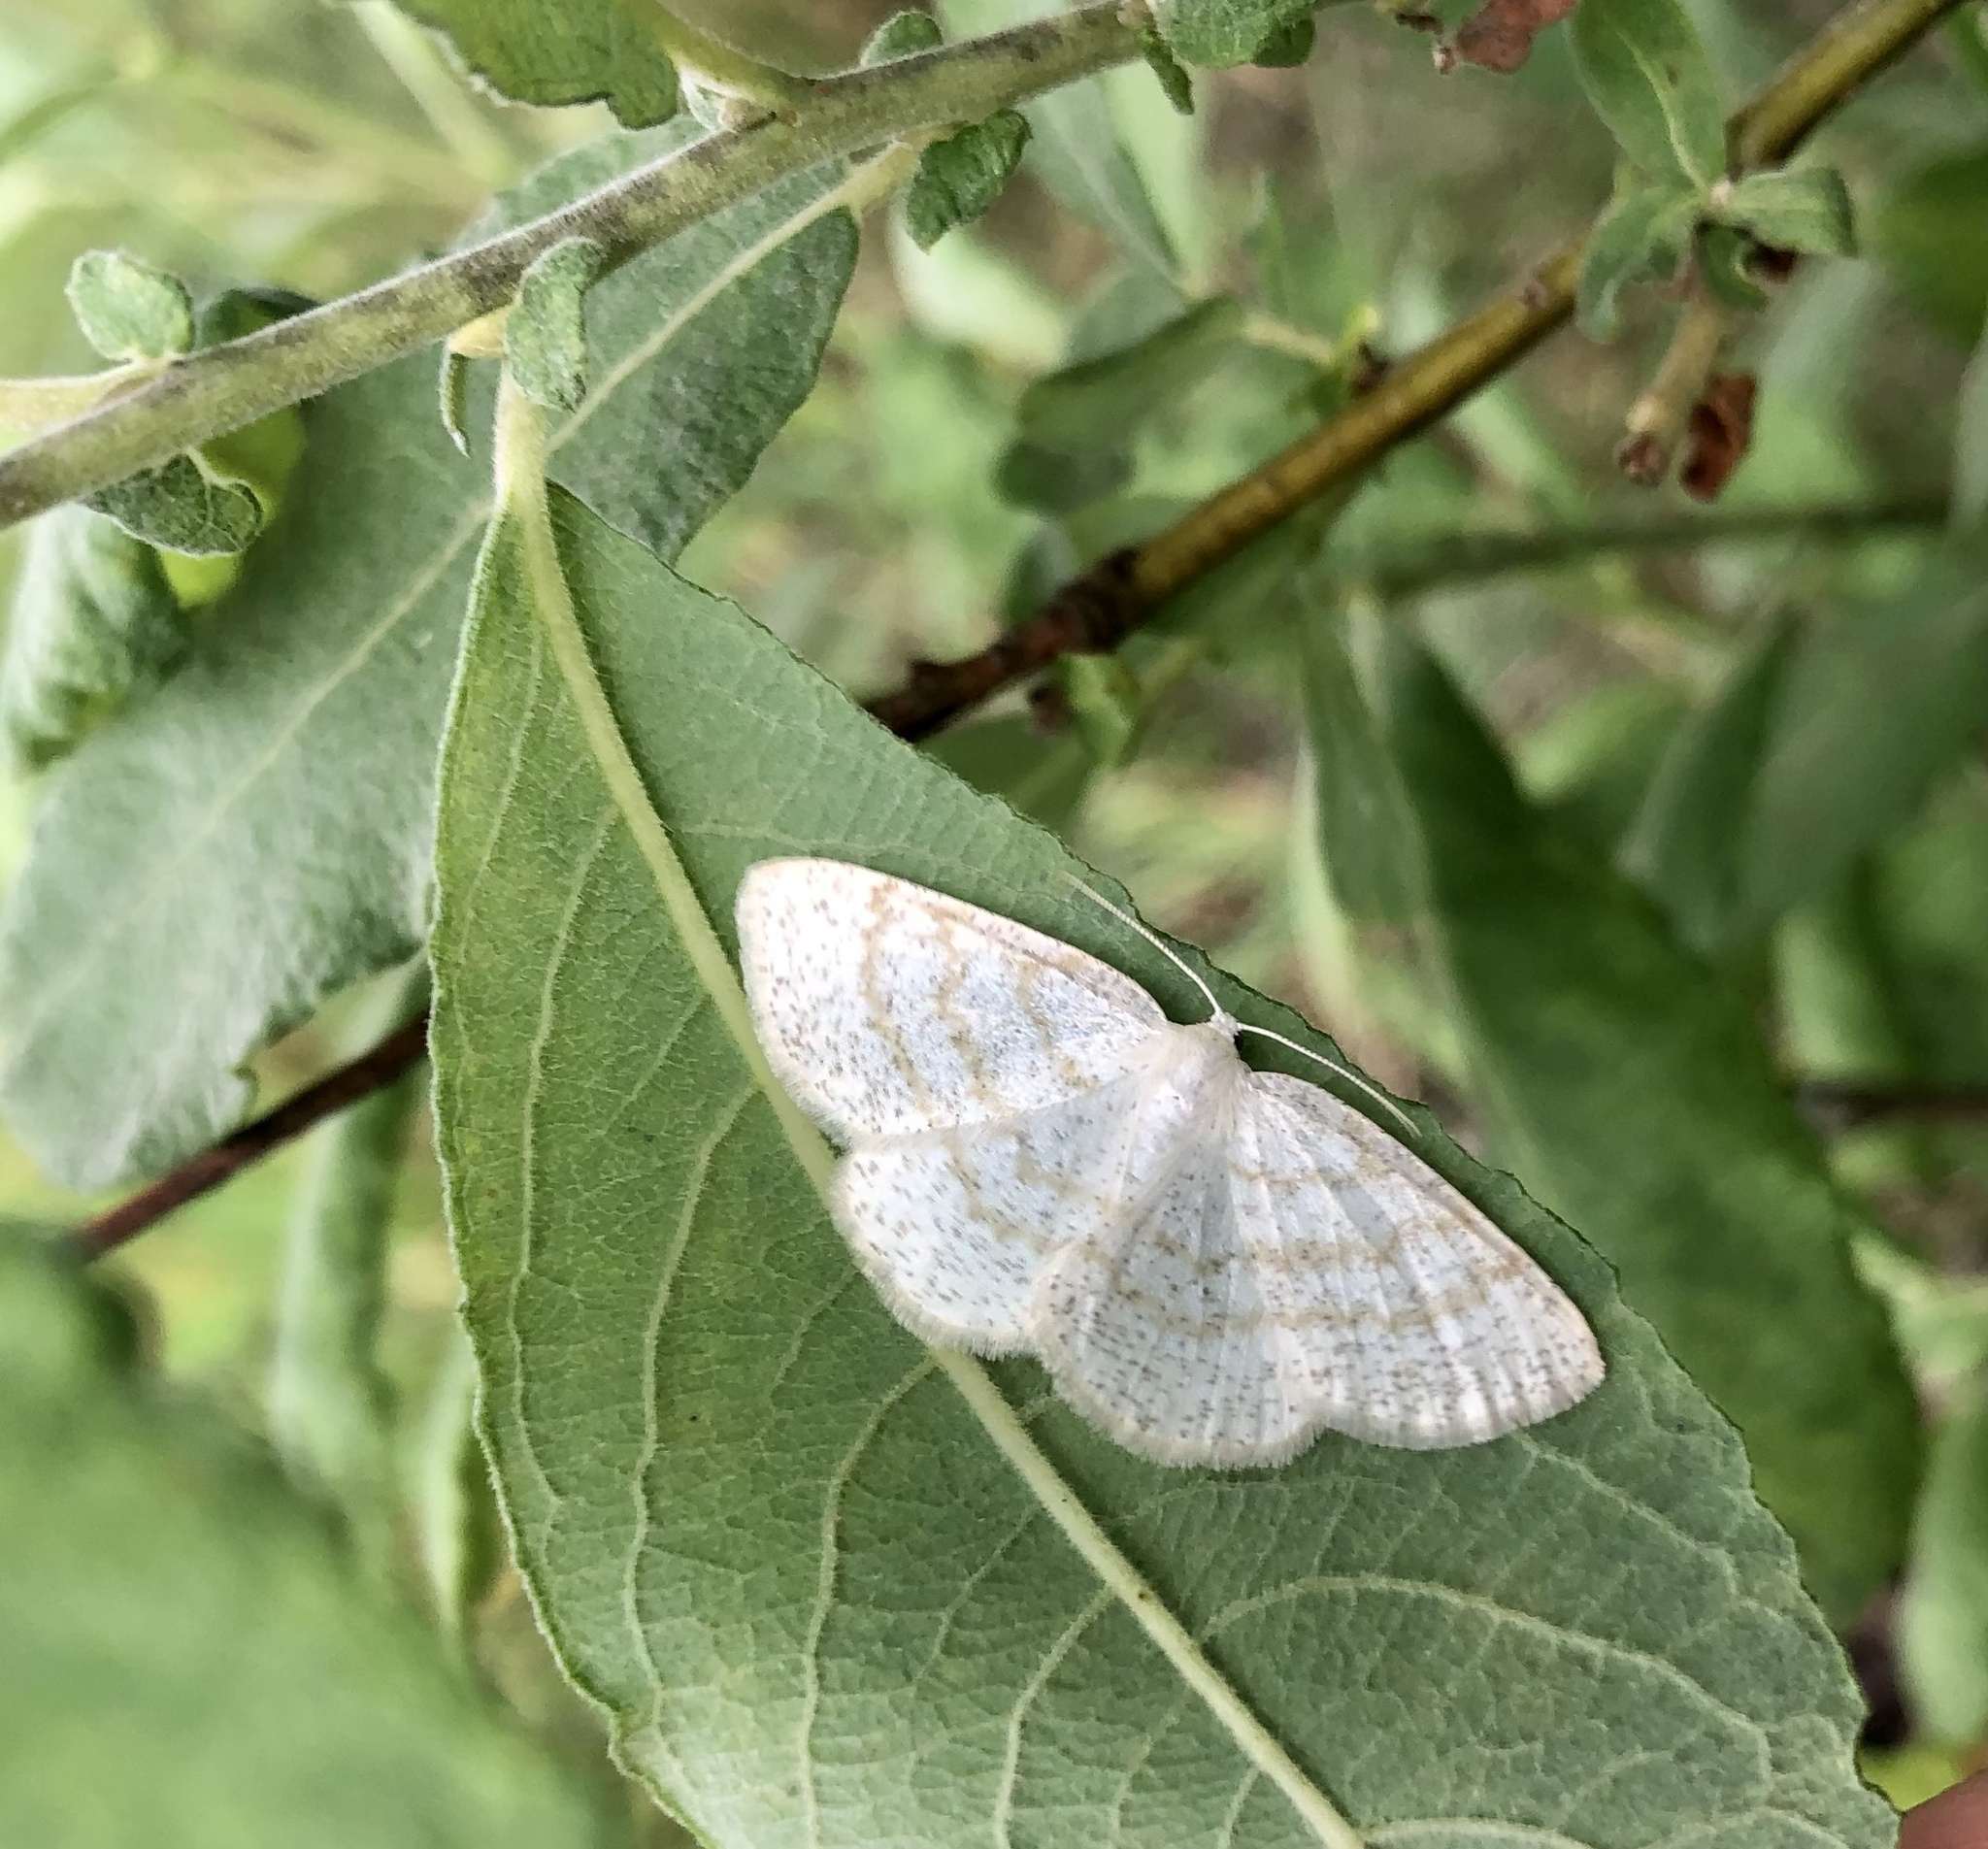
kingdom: Animalia
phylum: Arthropoda
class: Insecta
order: Lepidoptera
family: Geometridae
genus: Cabera
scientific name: Cabera exanthemata
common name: Common wave
